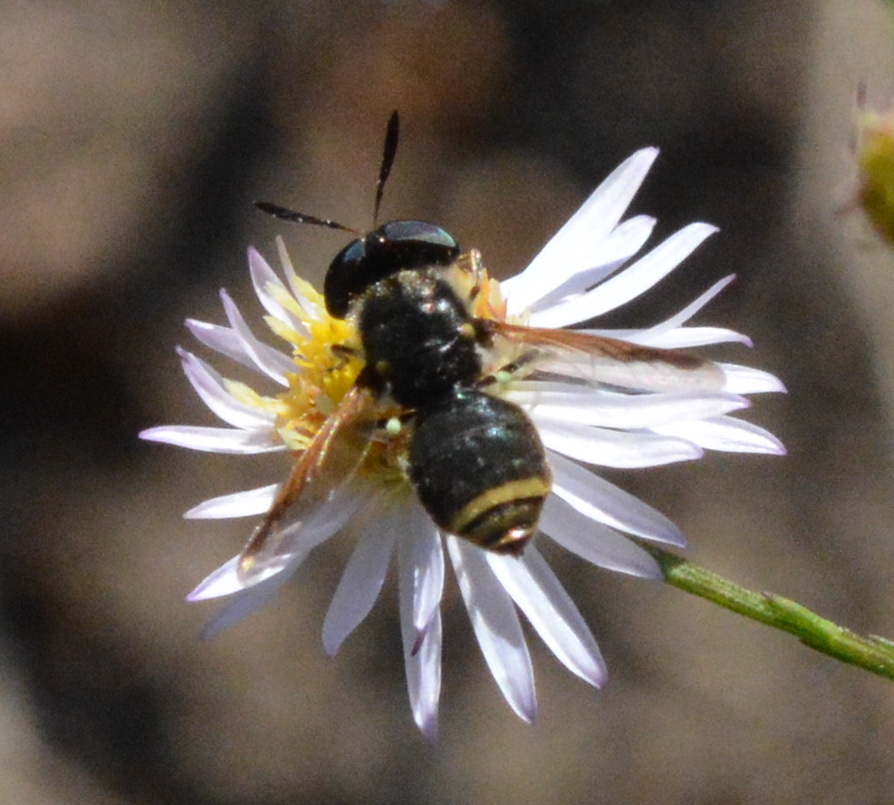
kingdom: Animalia
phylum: Arthropoda
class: Insecta
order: Diptera
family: Stratiomyidae
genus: Hoplitimyia
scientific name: Hoplitimyia mutabilis
